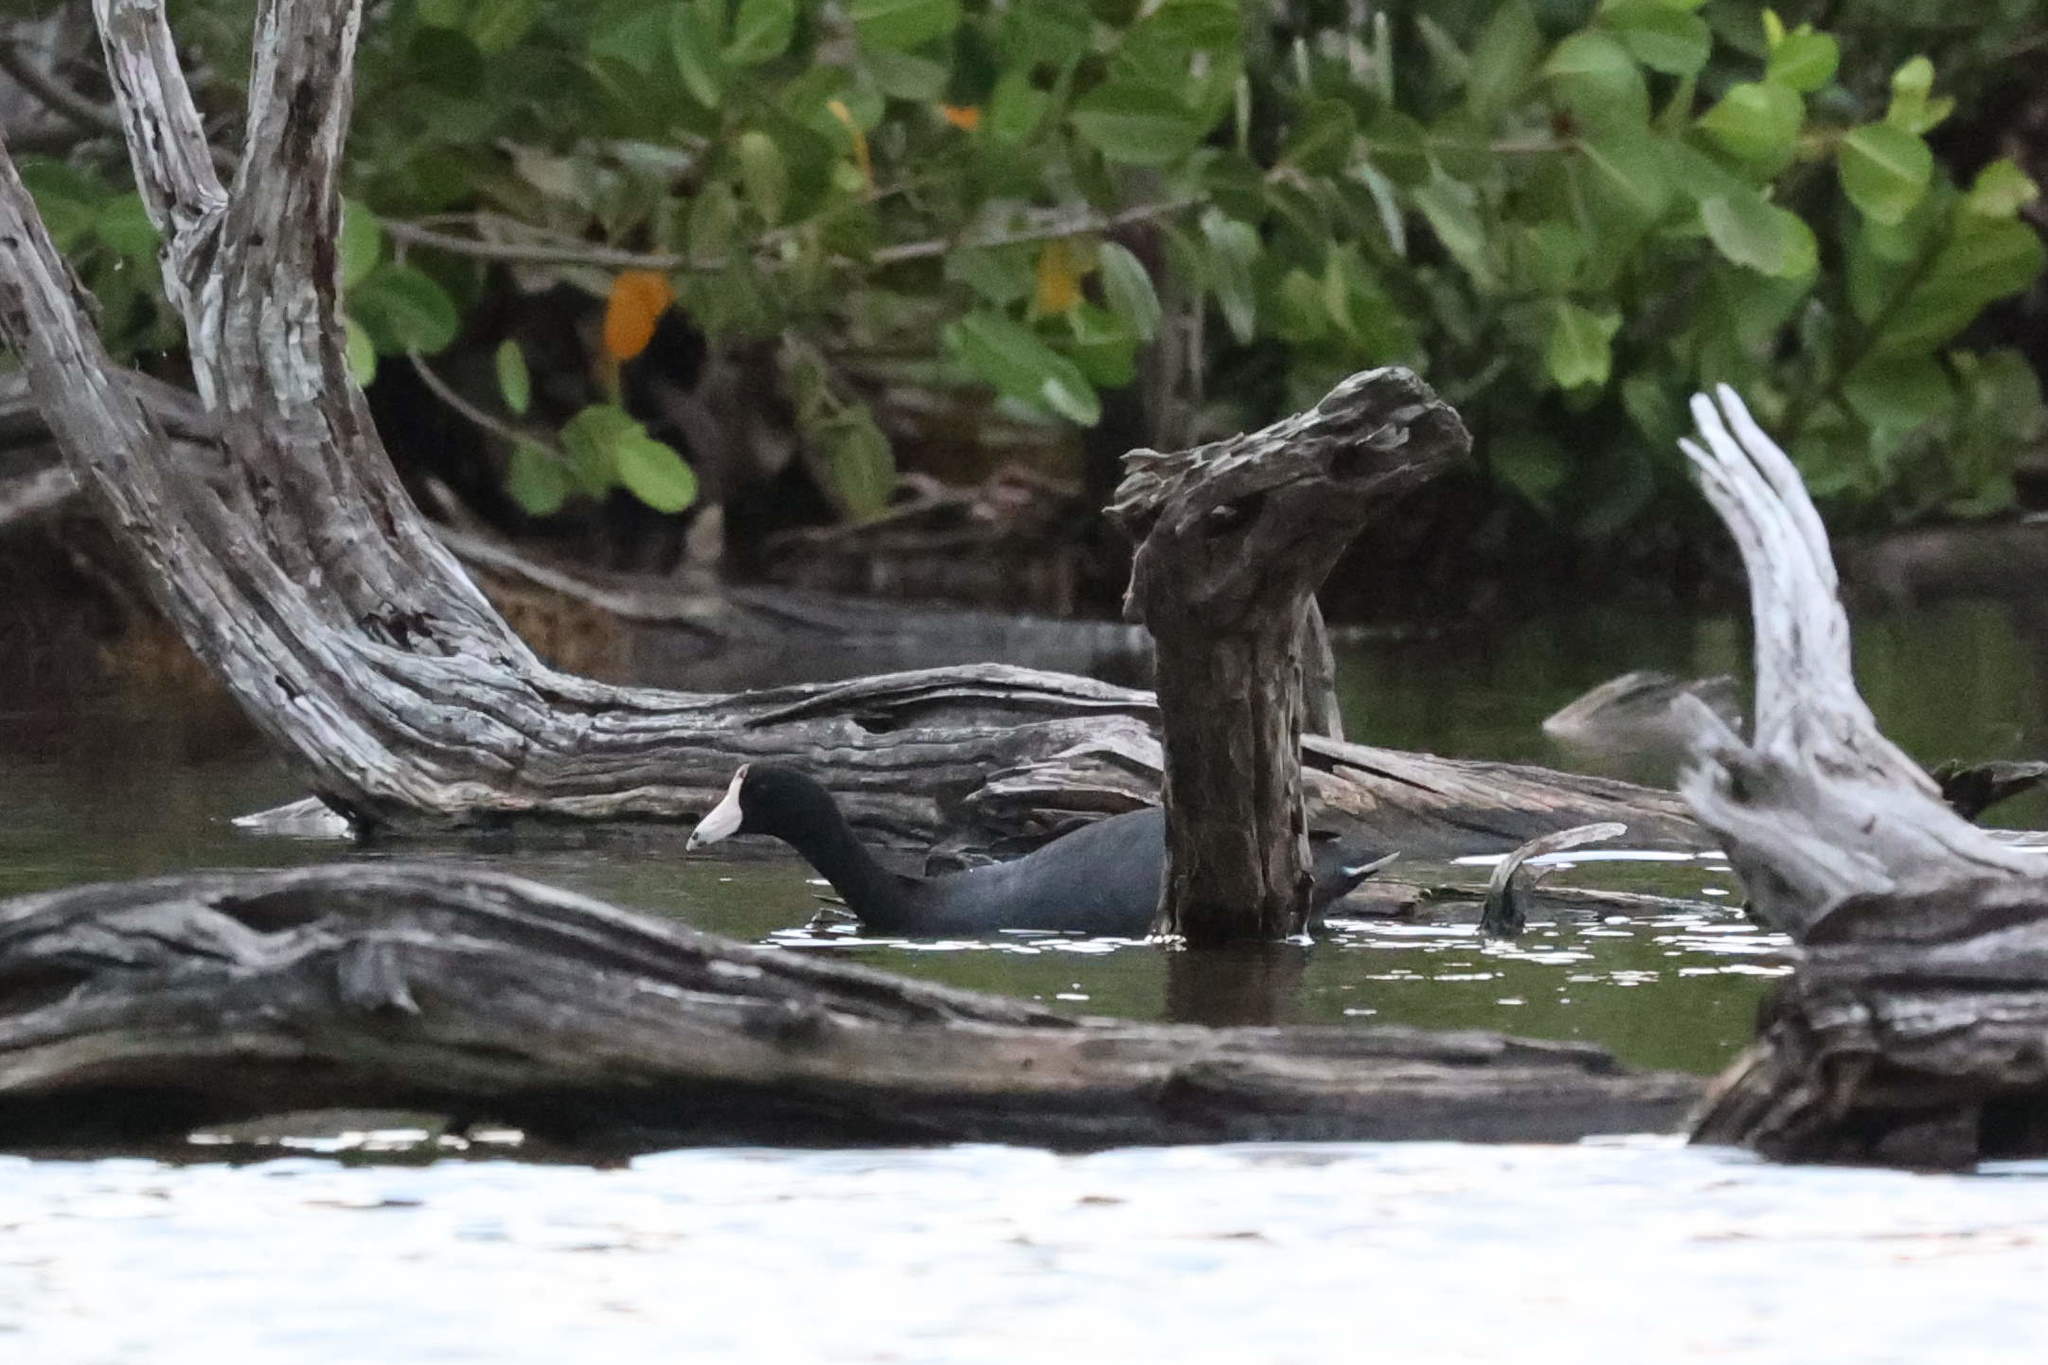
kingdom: Animalia
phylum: Chordata
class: Aves
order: Gruiformes
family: Rallidae
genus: Fulica
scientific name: Fulica americana
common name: American coot
